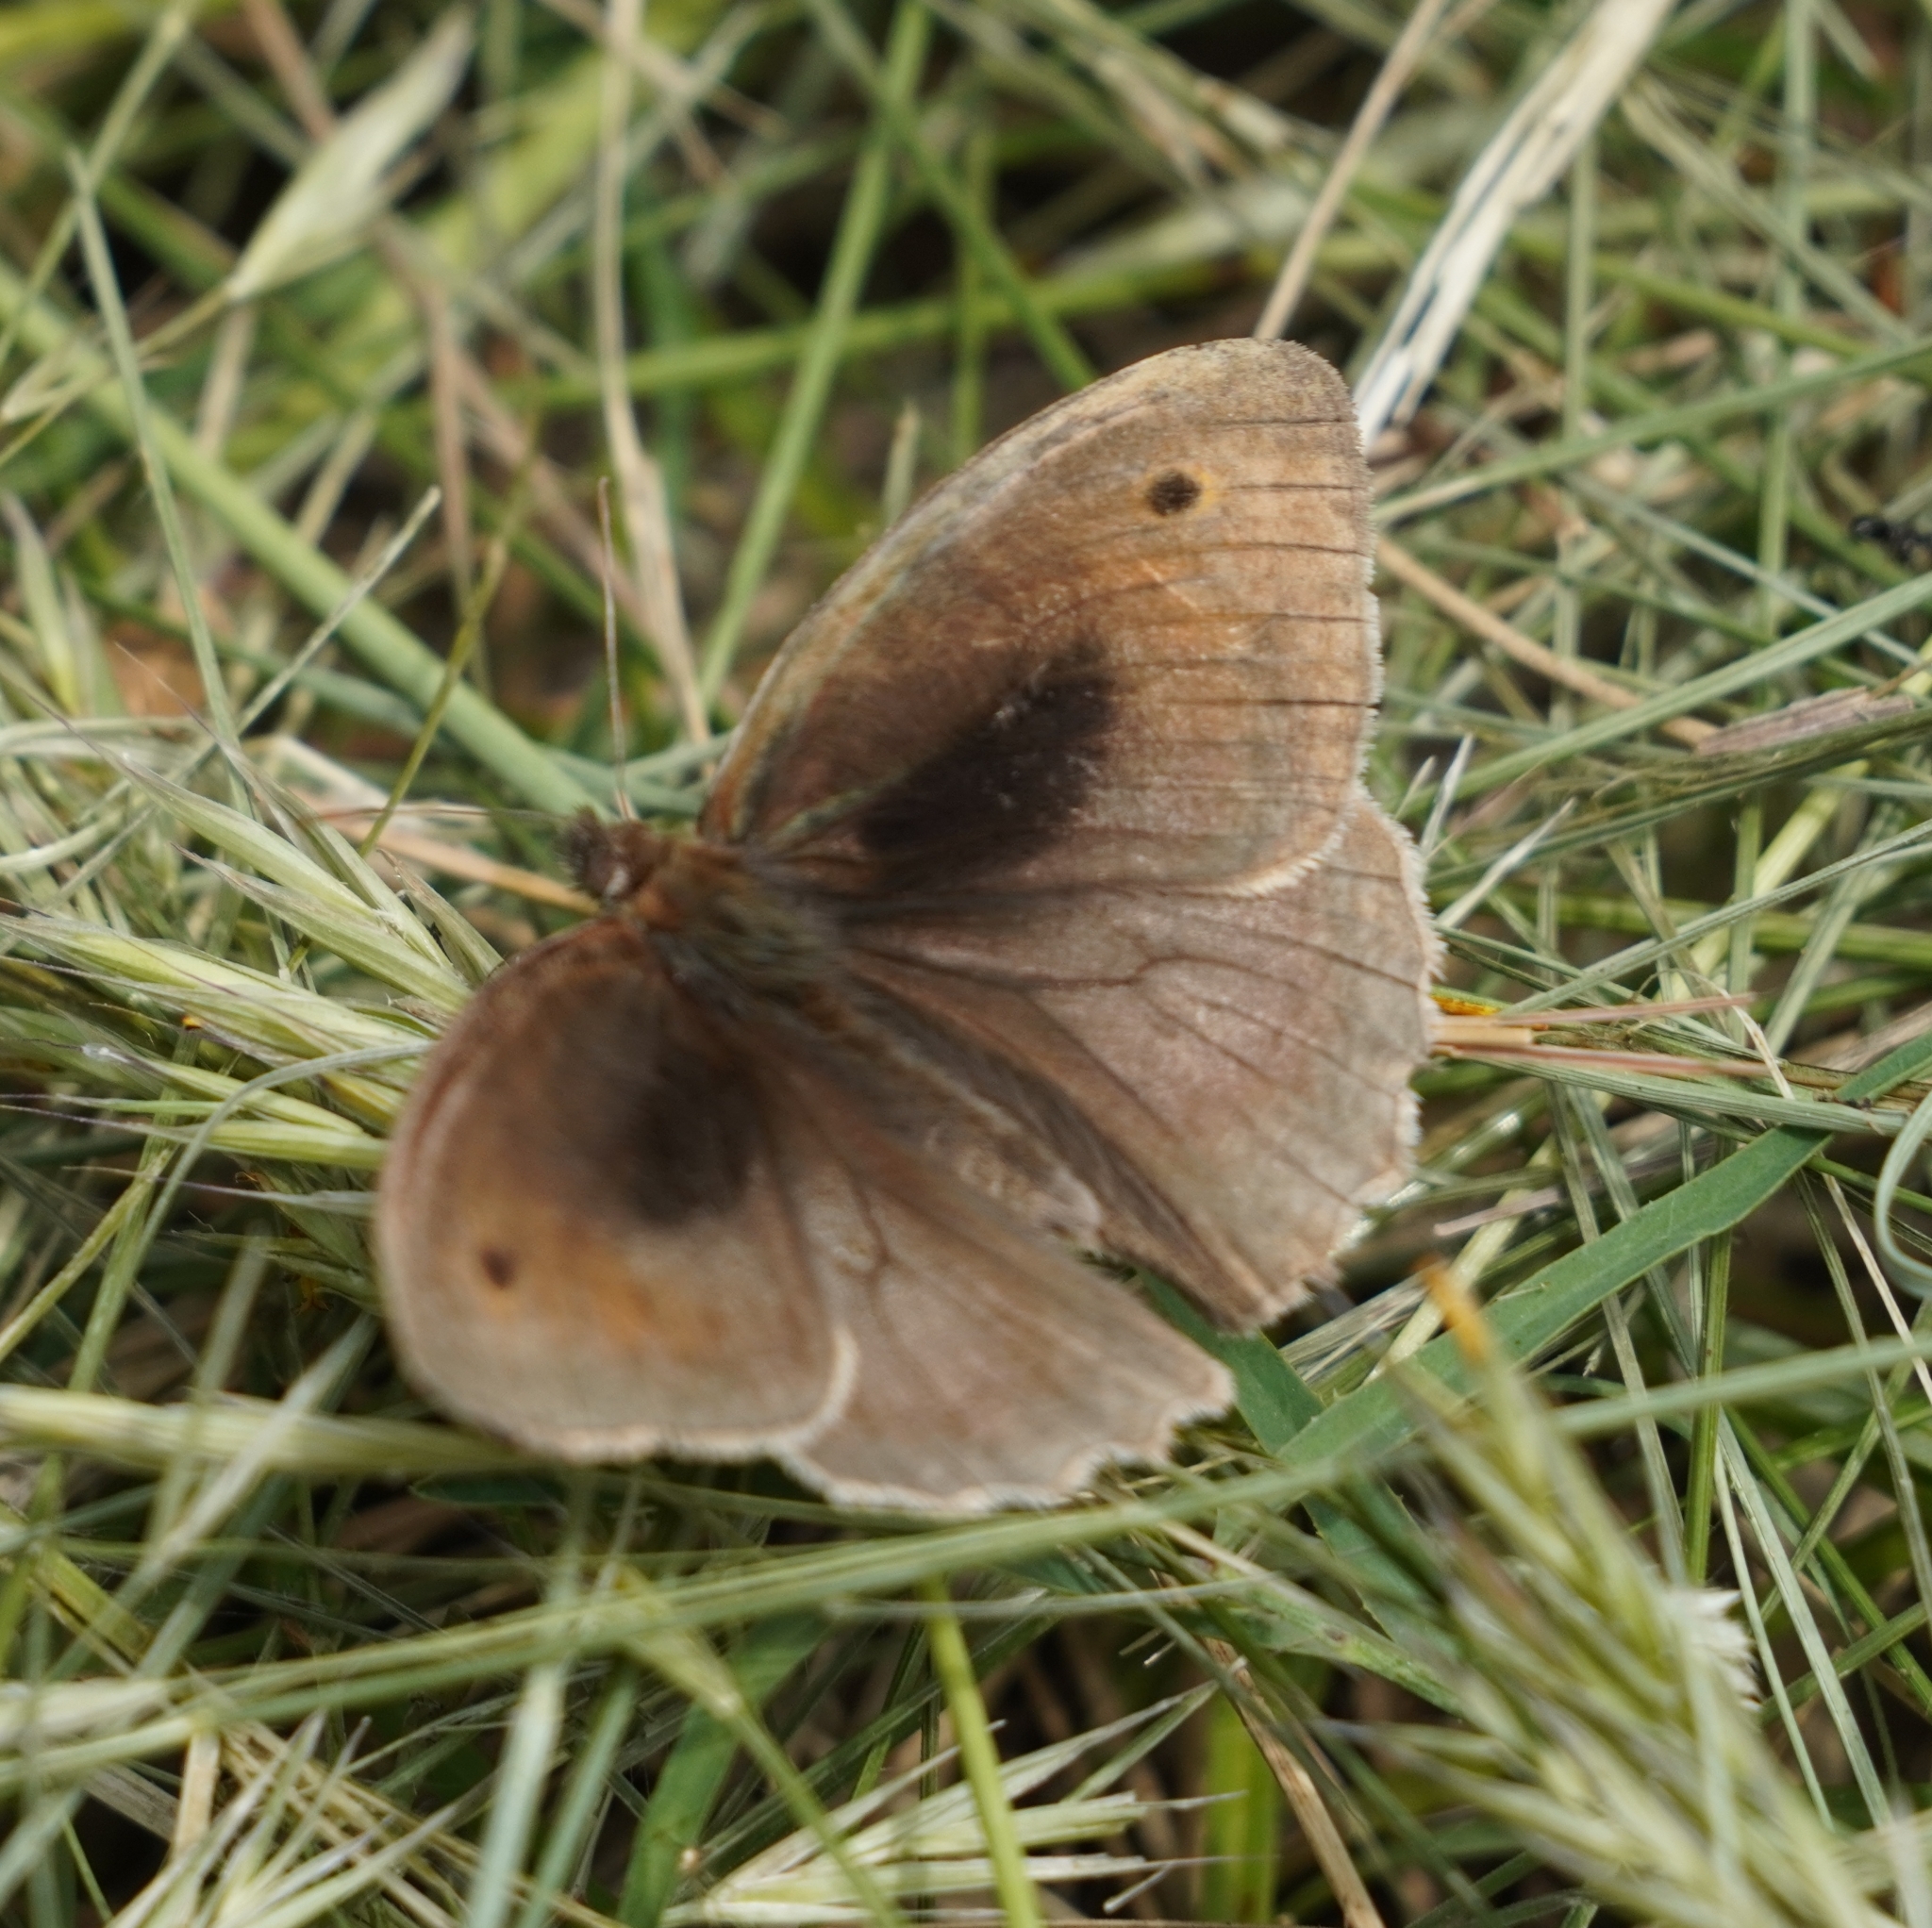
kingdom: Animalia
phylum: Arthropoda
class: Insecta
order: Lepidoptera
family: Nymphalidae
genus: Maniola
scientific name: Maniola jurtina
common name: Meadow brown
